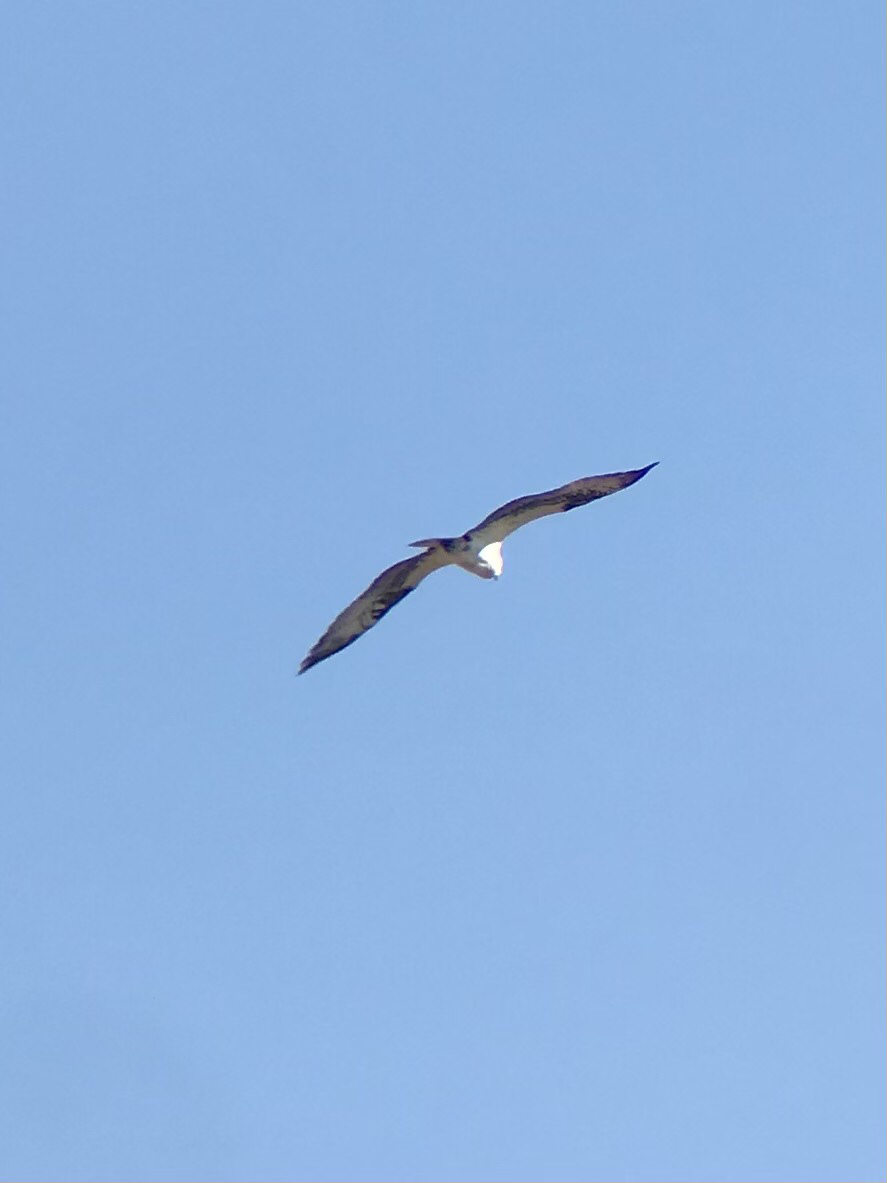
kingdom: Animalia
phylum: Chordata
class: Aves
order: Accipitriformes
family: Pandionidae
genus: Pandion
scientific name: Pandion haliaetus
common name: Osprey
